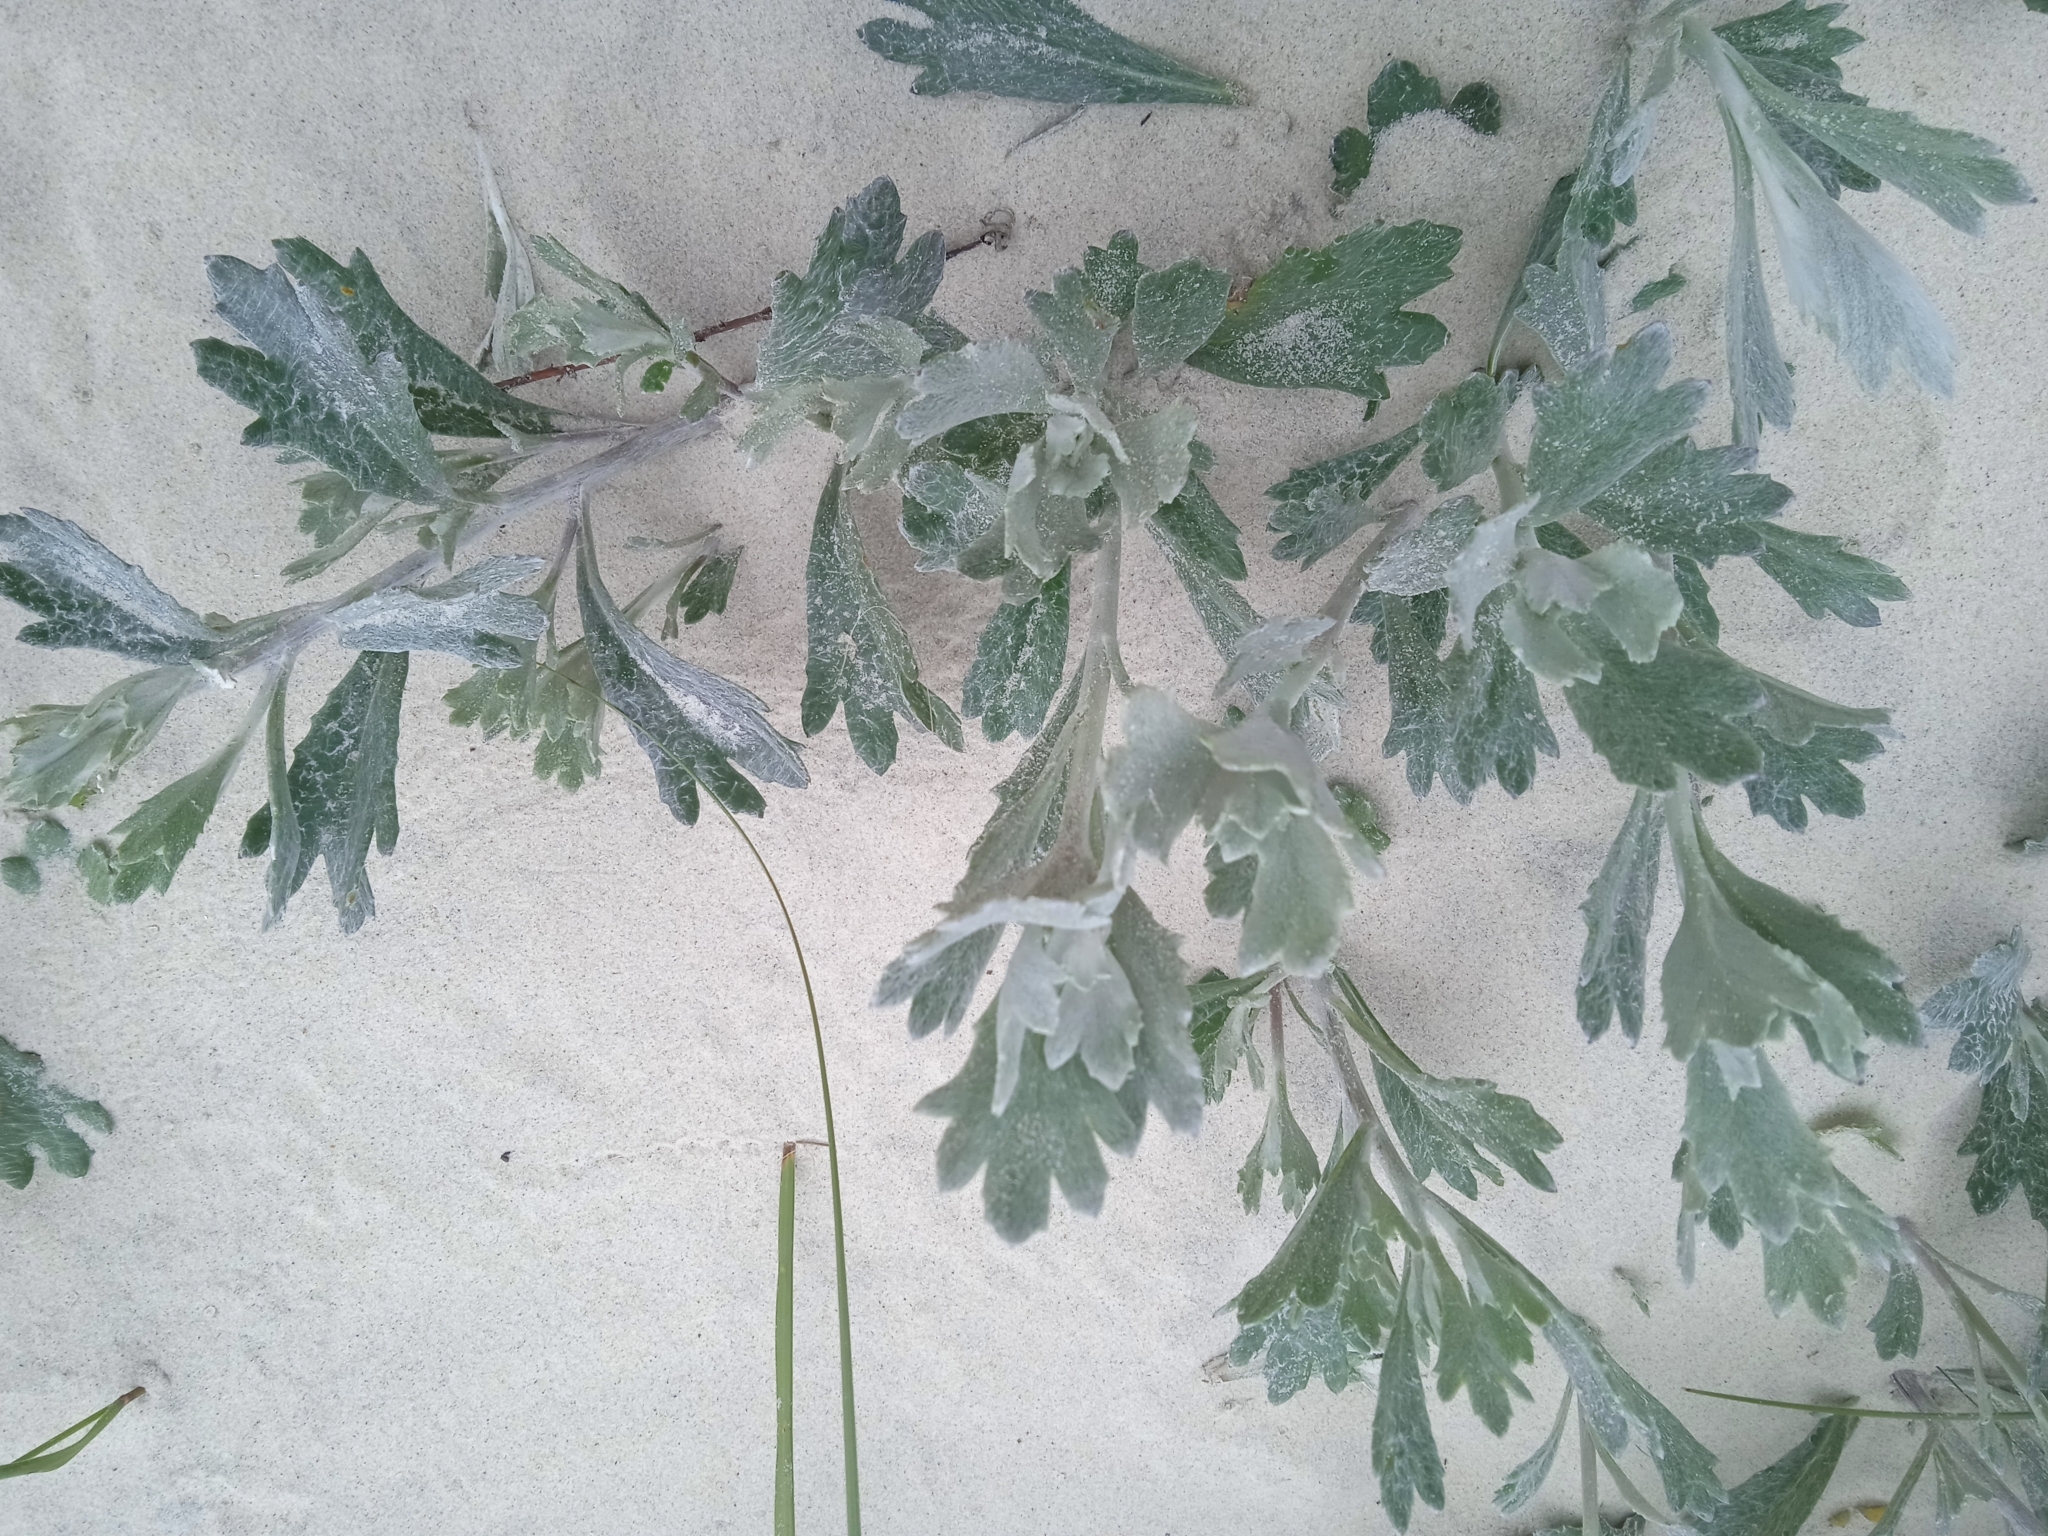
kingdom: Plantae
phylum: Tracheophyta
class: Magnoliopsida
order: Asterales
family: Asteraceae
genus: Senecio
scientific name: Senecio crassiflorus
